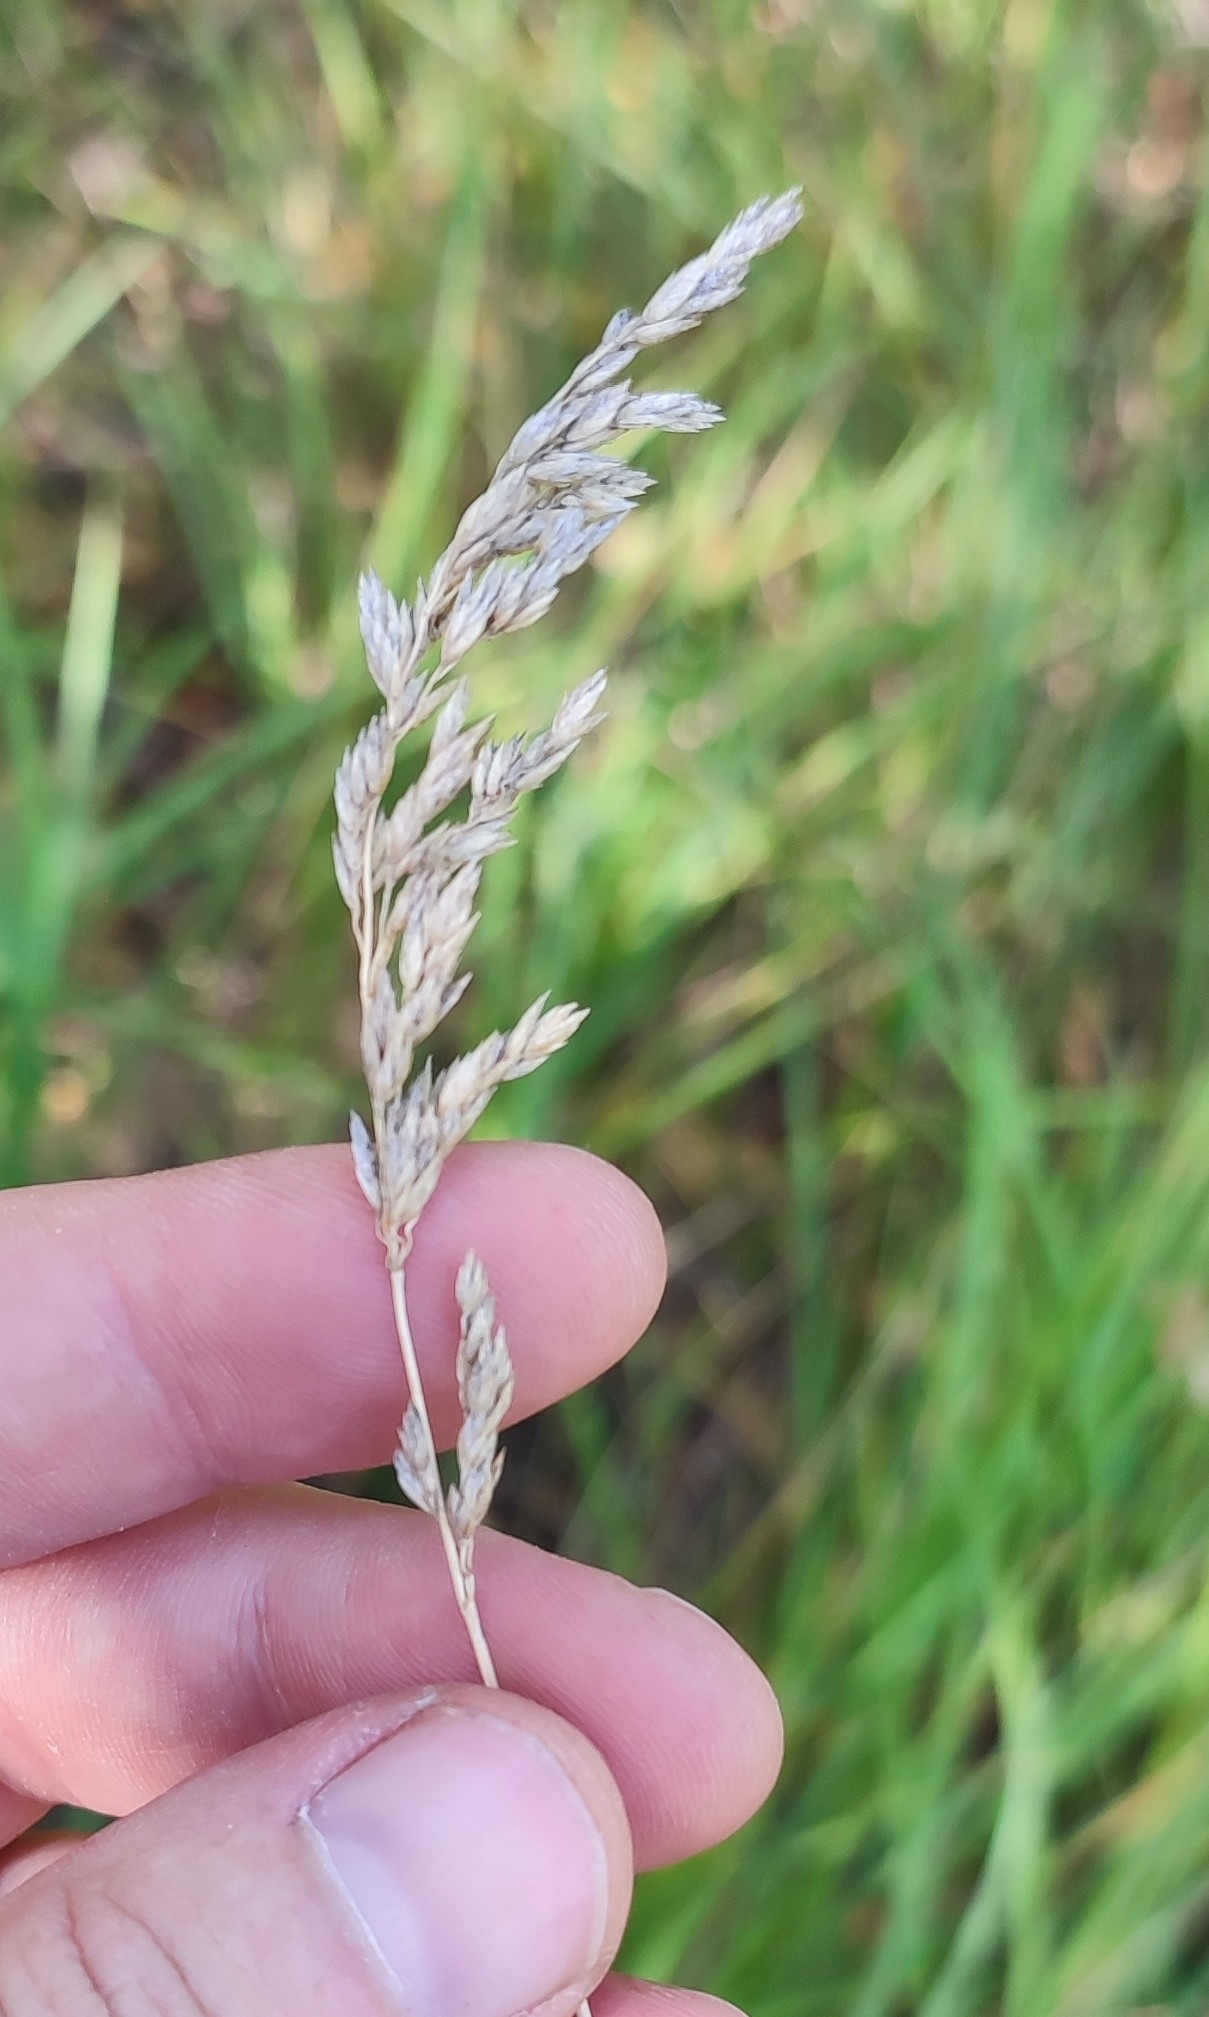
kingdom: Plantae
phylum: Tracheophyta
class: Liliopsida
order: Poales
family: Poaceae
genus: Poa
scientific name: Poa pratensis
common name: Kentucky bluegrass
